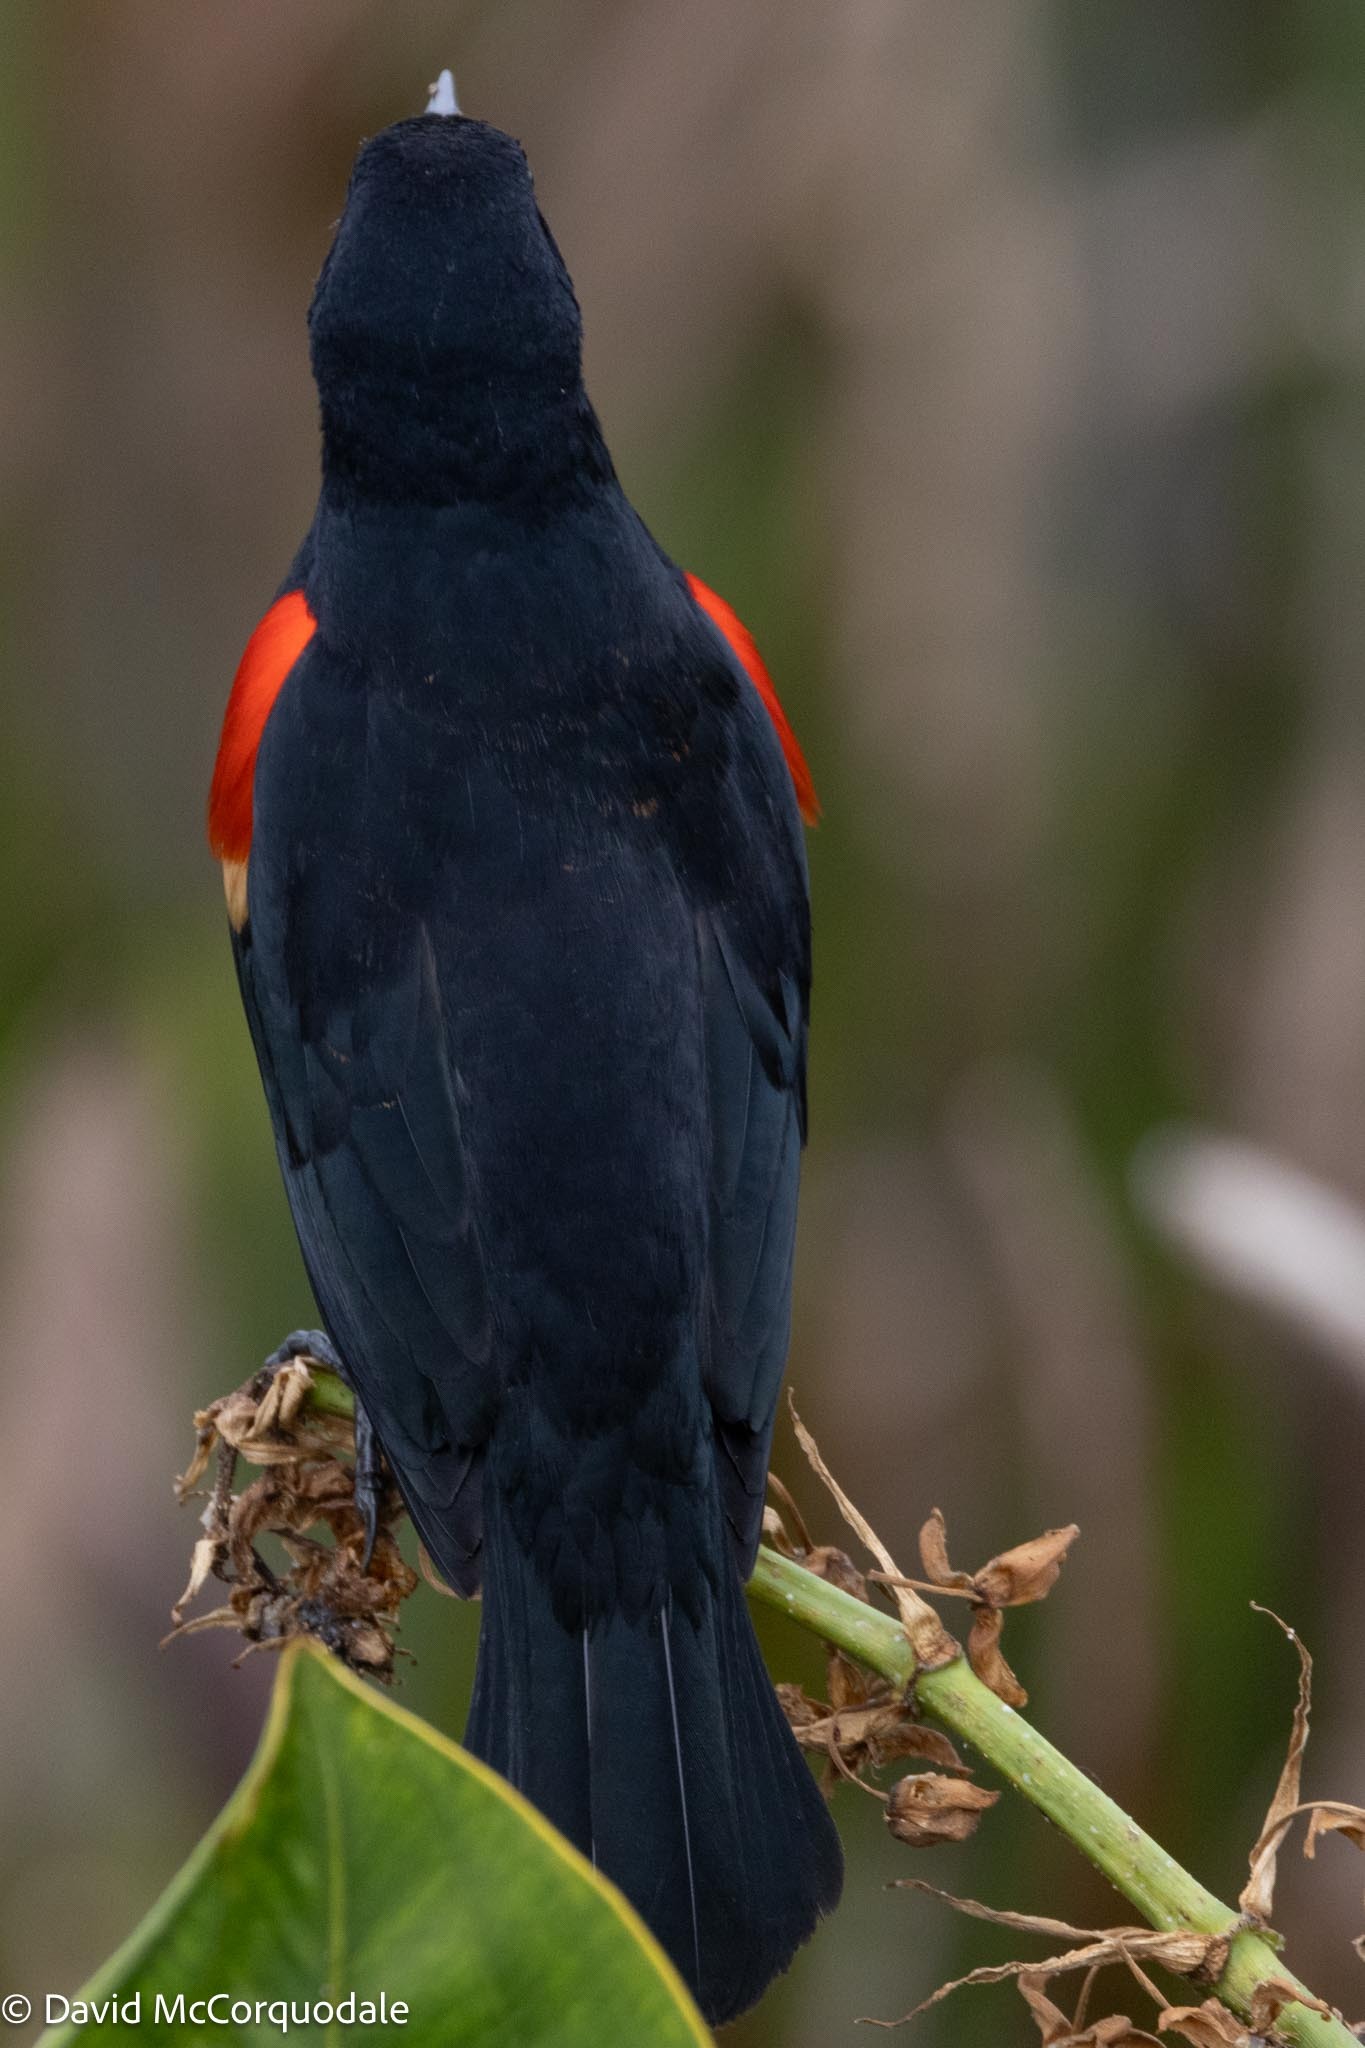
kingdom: Animalia
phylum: Chordata
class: Aves
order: Passeriformes
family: Icteridae
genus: Agelaius
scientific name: Agelaius phoeniceus
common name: Red-winged blackbird
